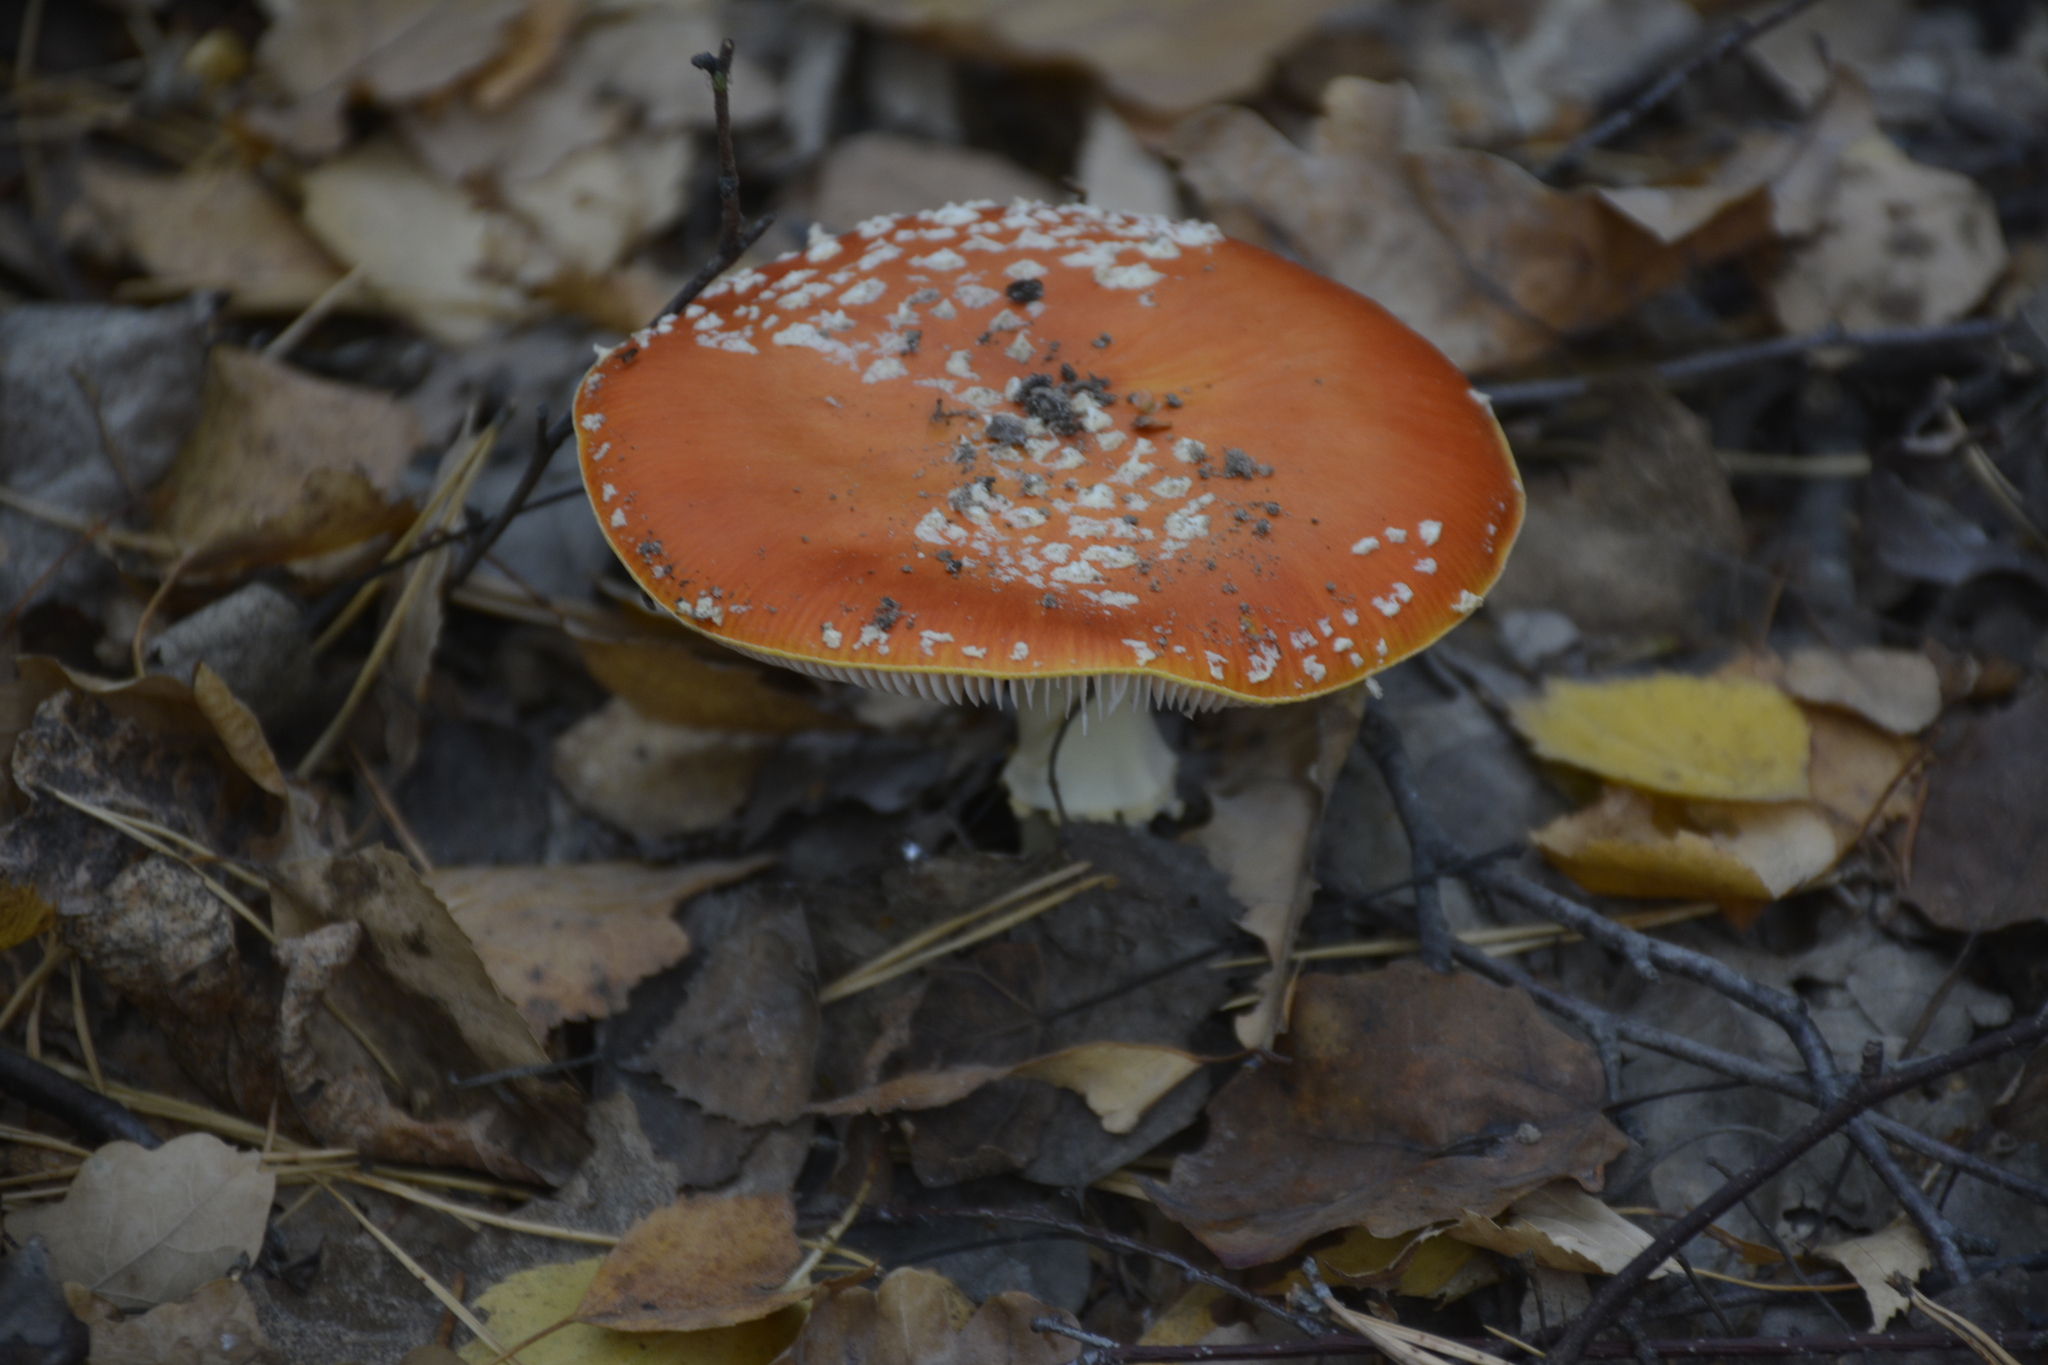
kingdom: Fungi
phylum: Basidiomycota
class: Agaricomycetes
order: Agaricales
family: Amanitaceae
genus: Amanita
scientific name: Amanita muscaria
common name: Fly agaric
